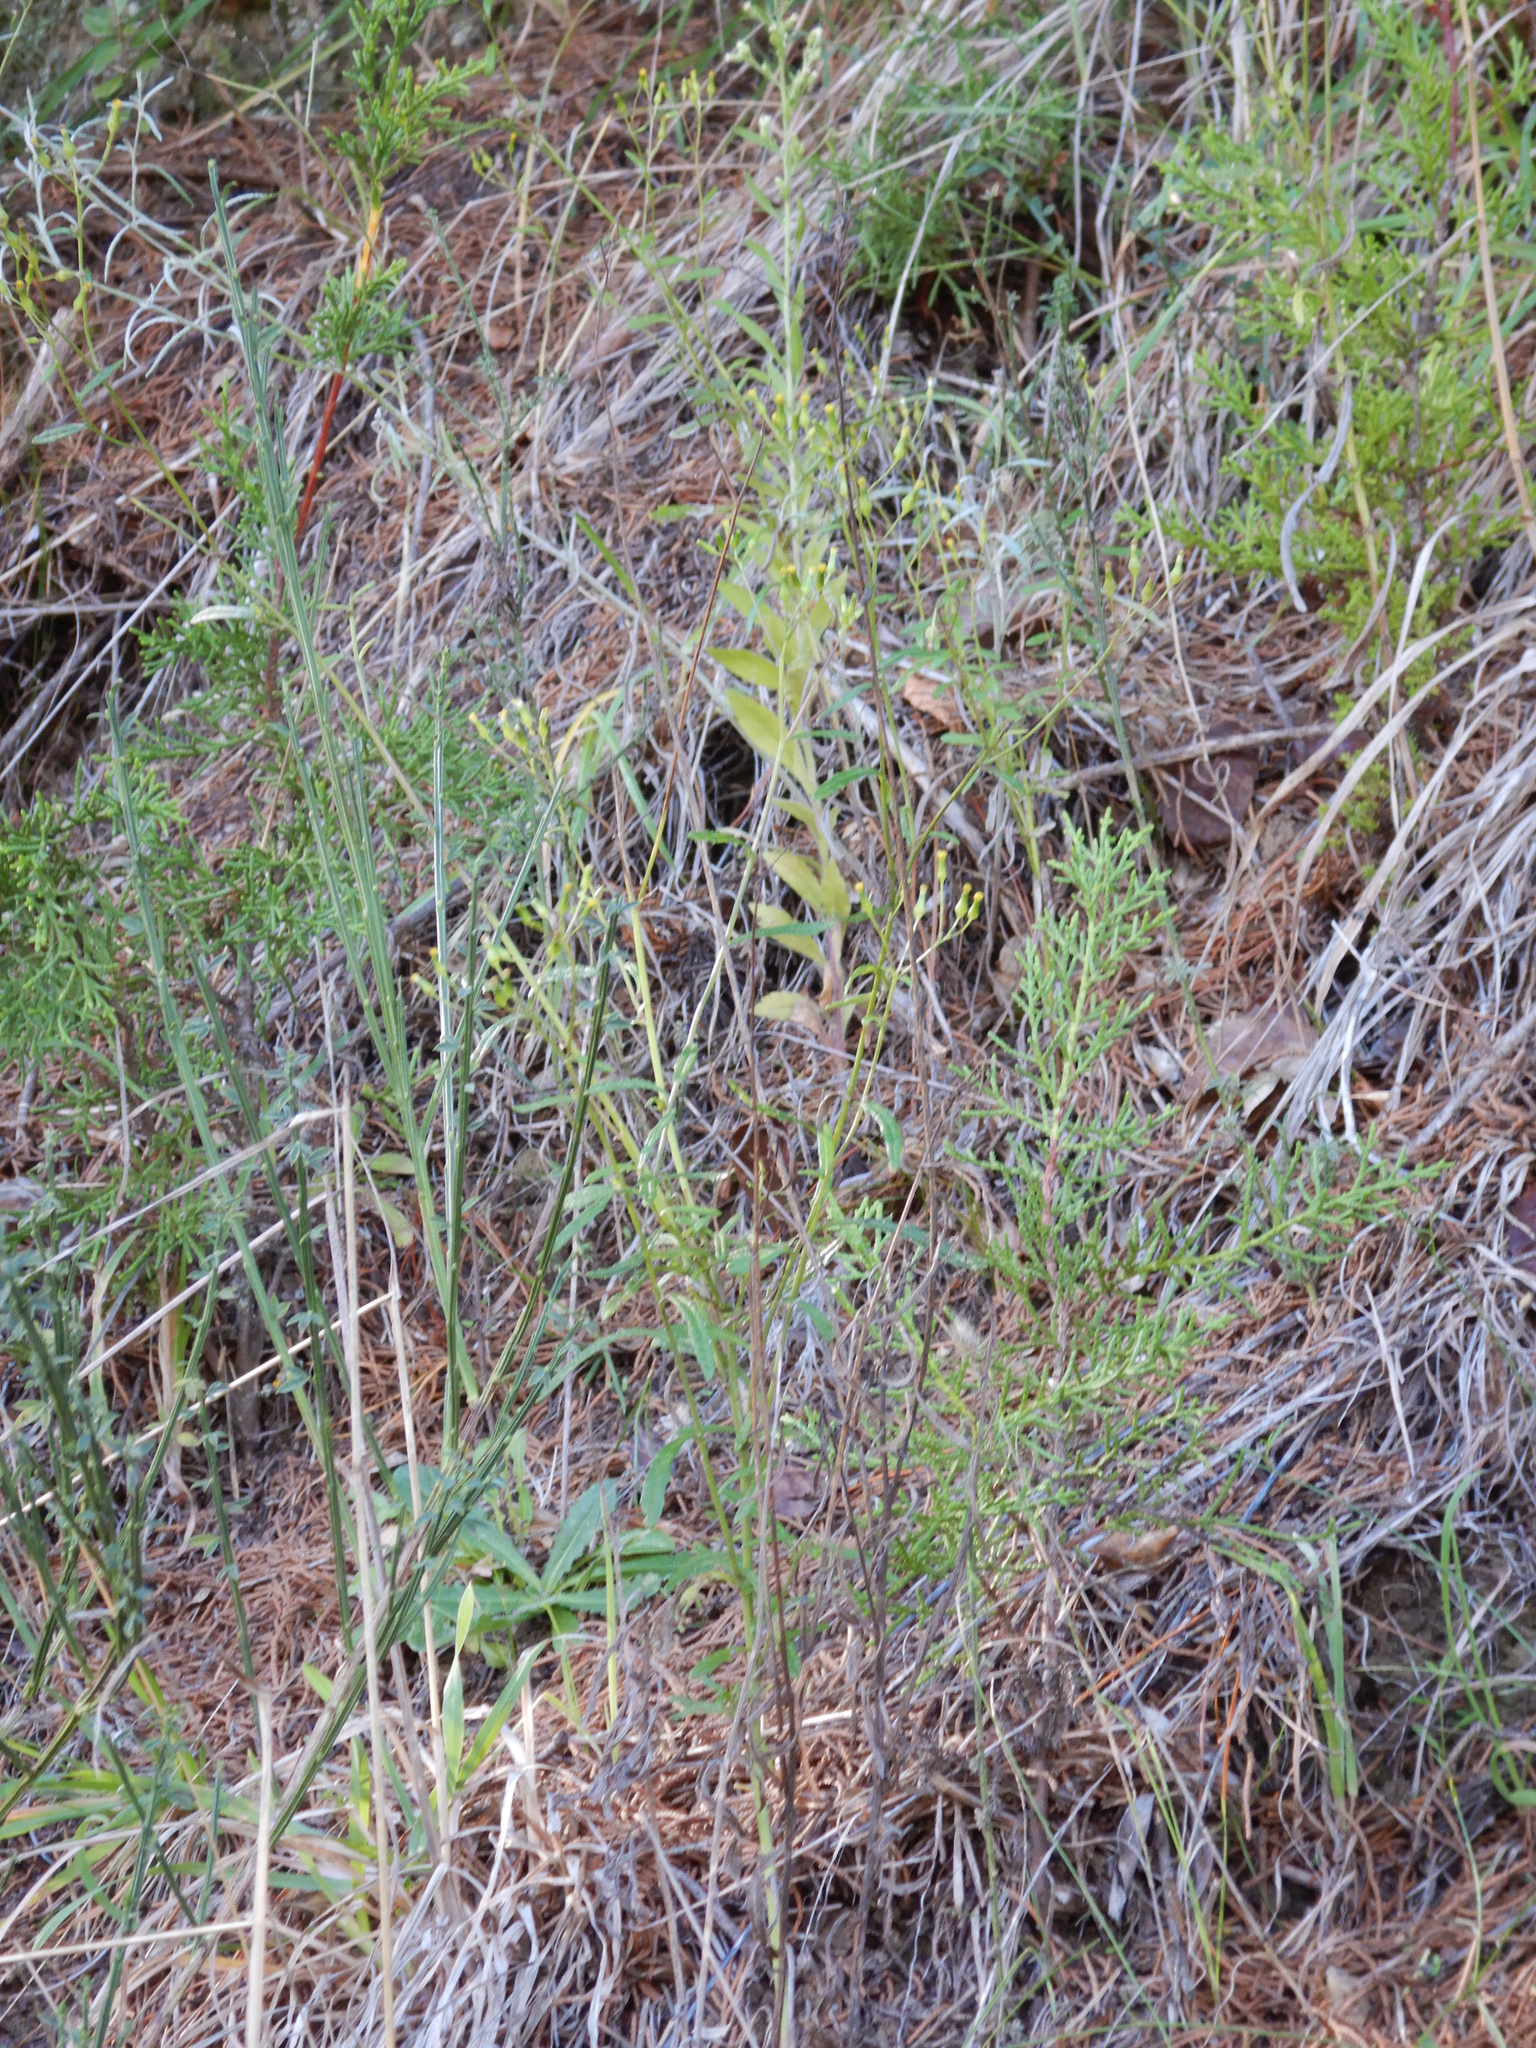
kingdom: Plantae
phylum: Tracheophyta
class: Magnoliopsida
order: Asterales
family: Asteraceae
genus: Senecio
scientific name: Senecio hispidulus
